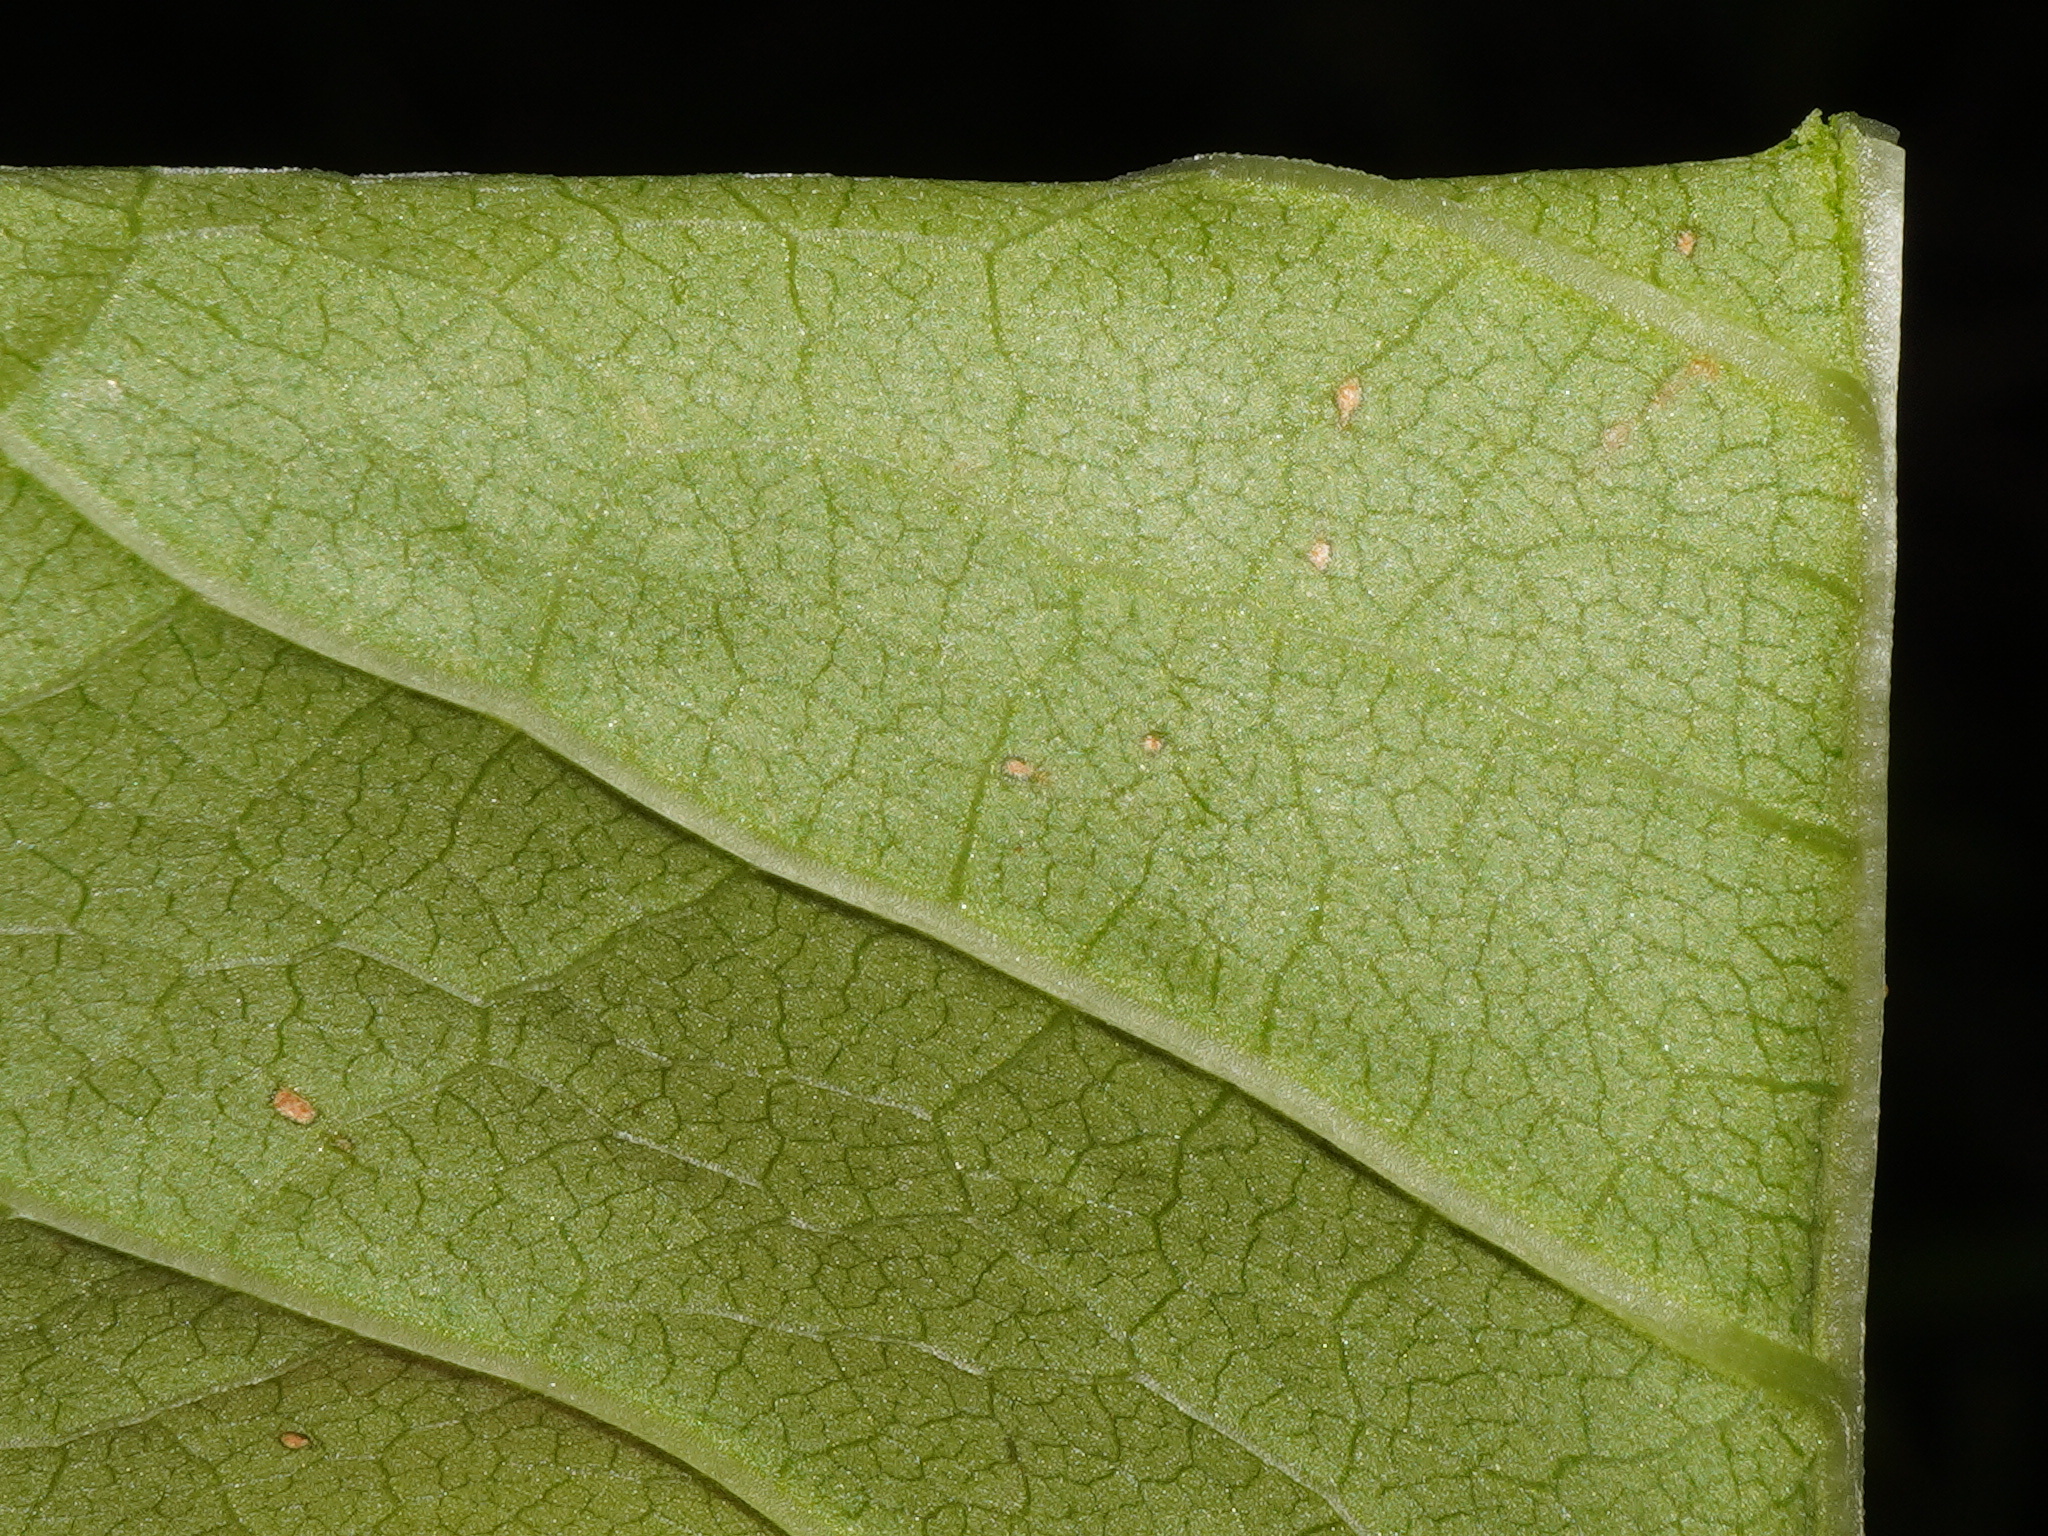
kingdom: Plantae
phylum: Tracheophyta
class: Magnoliopsida
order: Caryophyllales
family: Polygonaceae
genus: Reynoutria
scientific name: Reynoutria japonica
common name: Japanese knotweed
